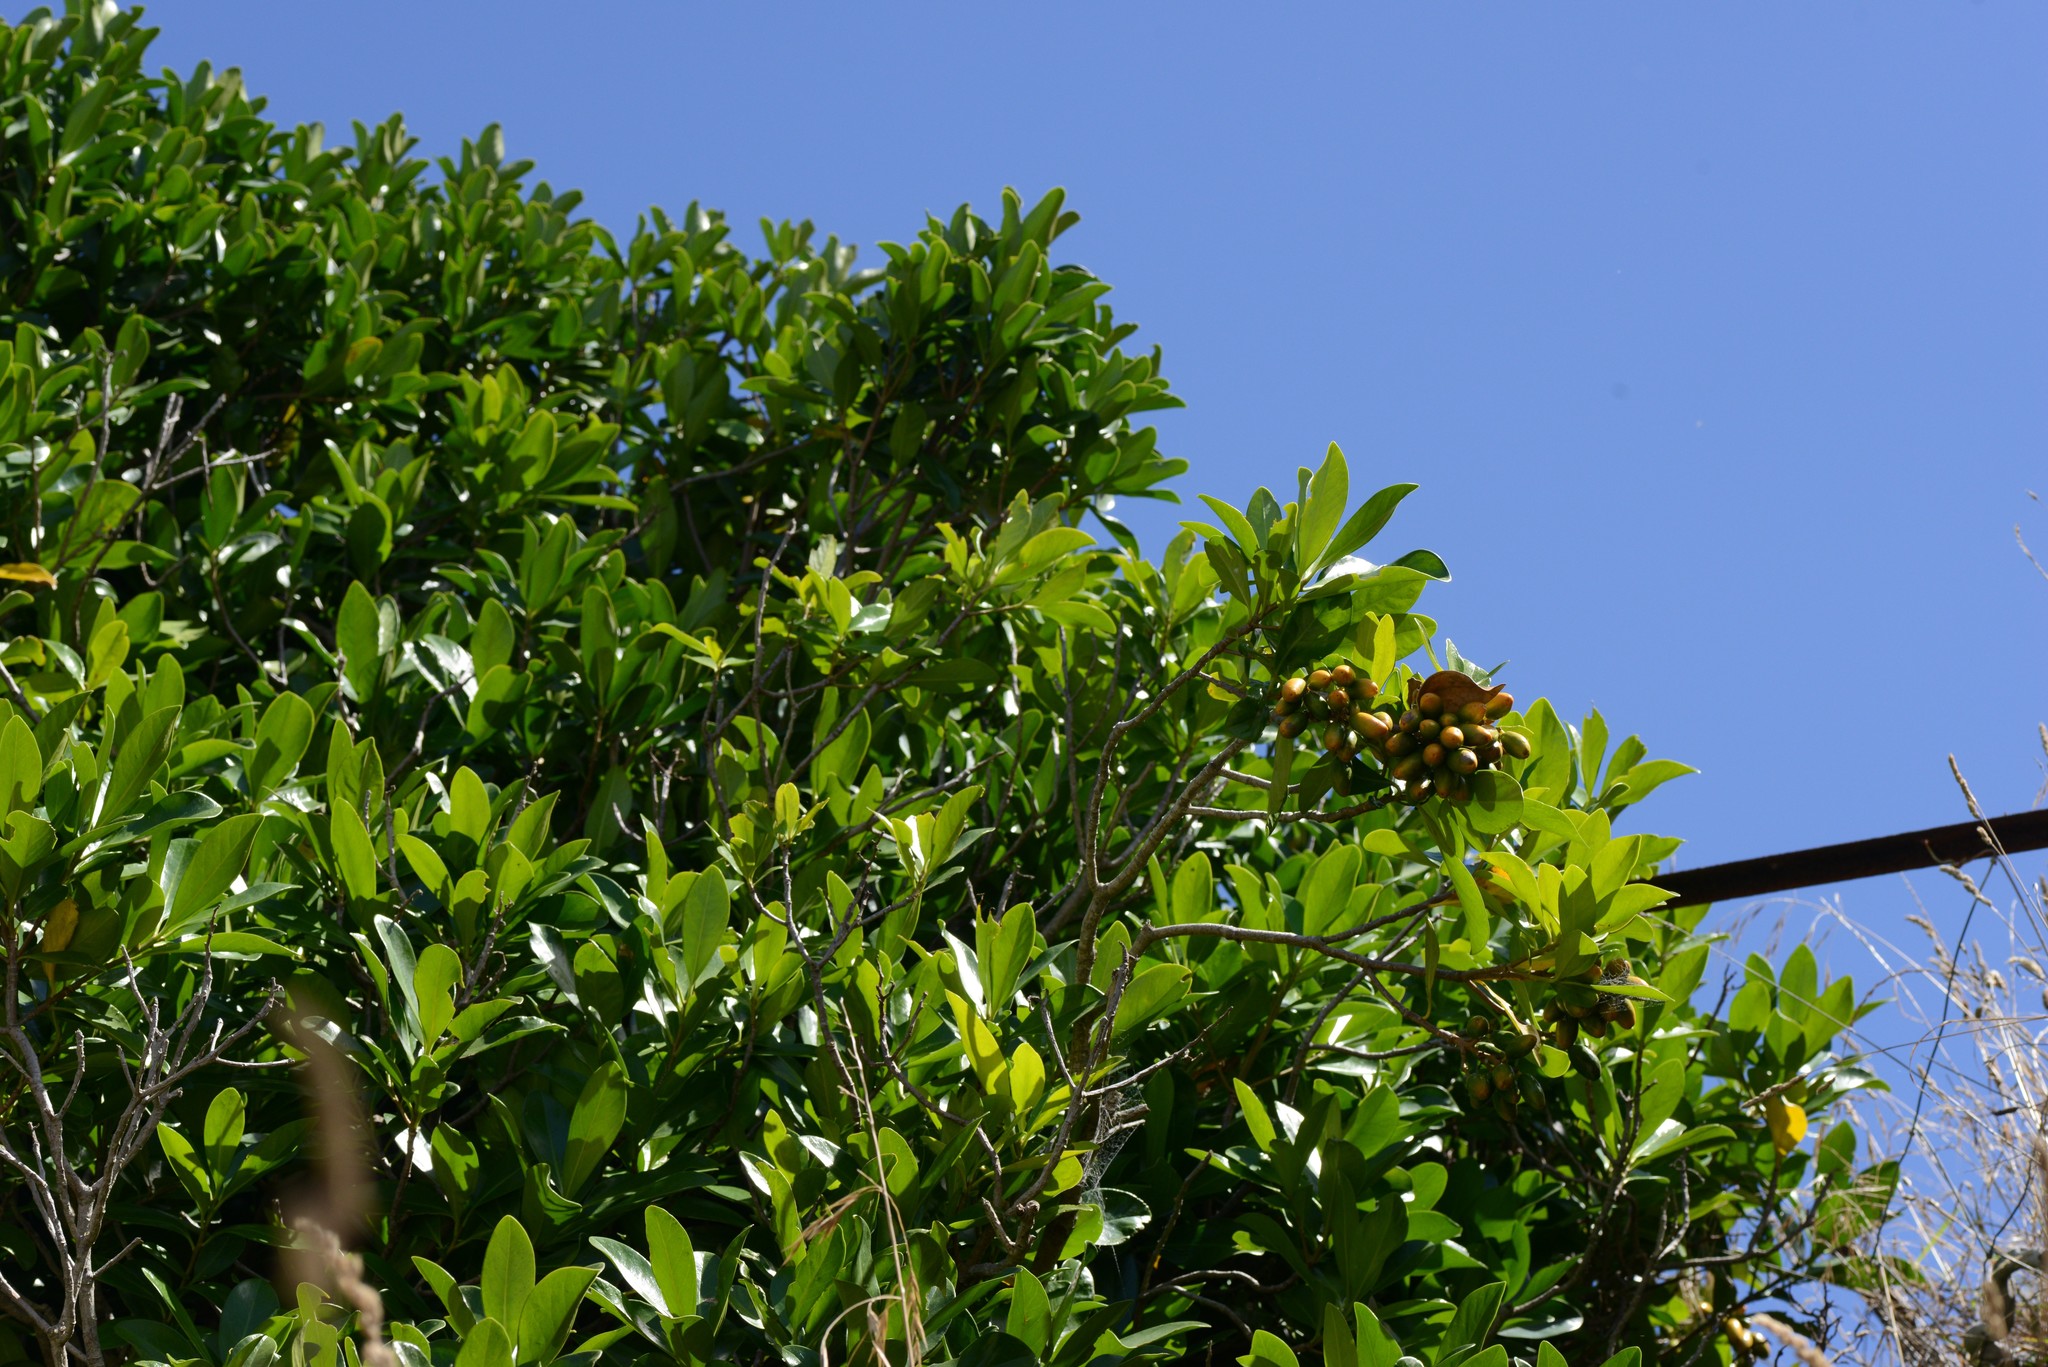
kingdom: Plantae
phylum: Tracheophyta
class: Magnoliopsida
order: Cucurbitales
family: Corynocarpaceae
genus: Corynocarpus
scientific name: Corynocarpus laevigatus
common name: New zealand laurel
